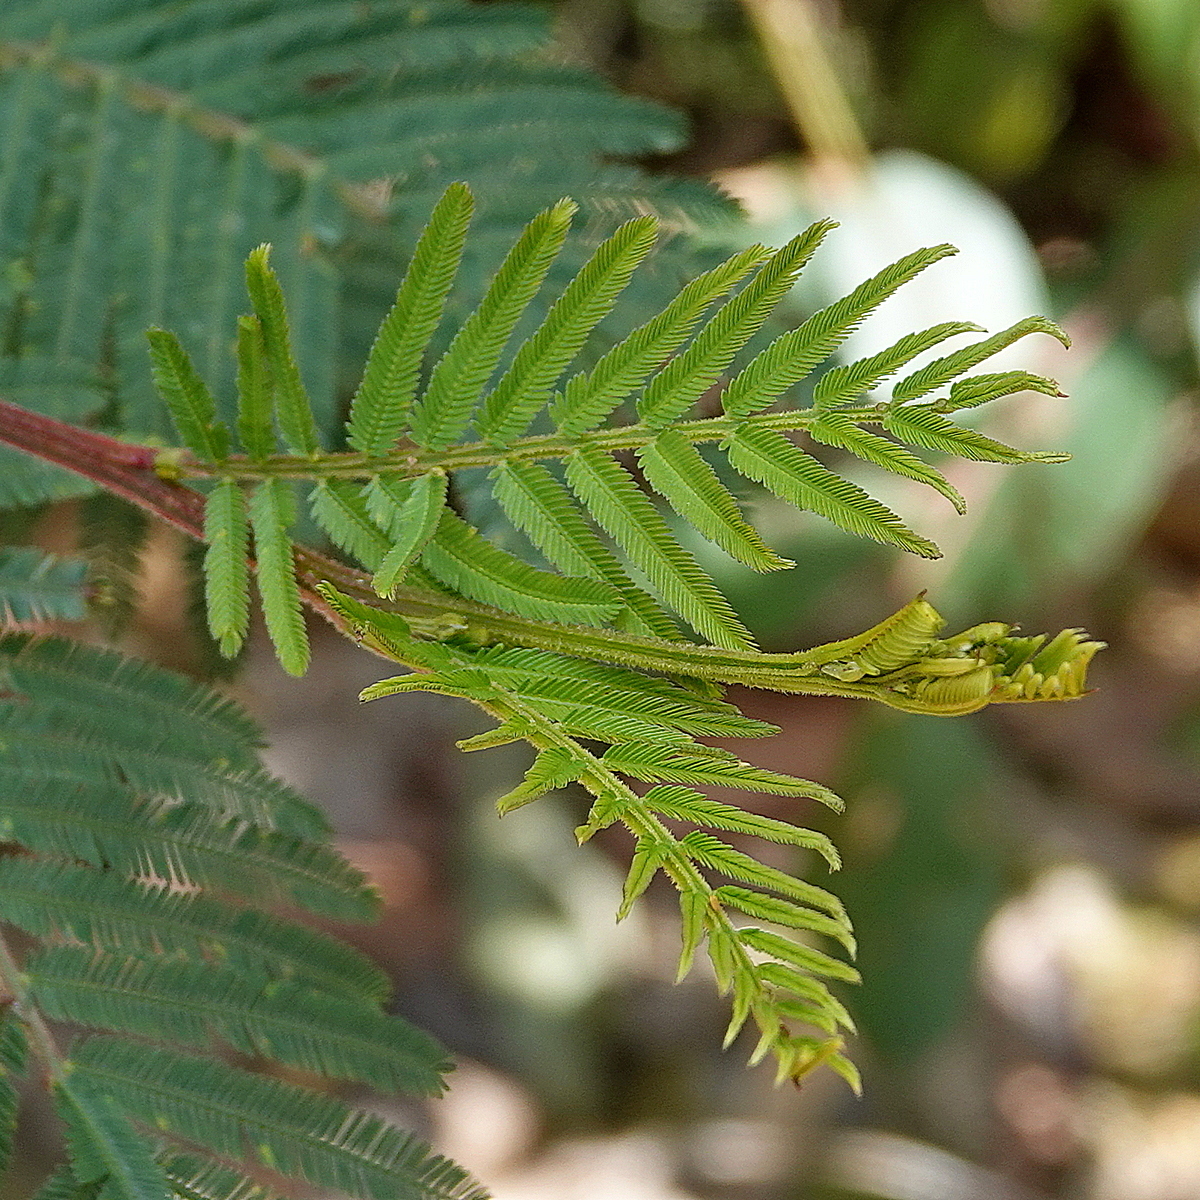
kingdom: Plantae
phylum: Tracheophyta
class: Magnoliopsida
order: Fabales
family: Fabaceae
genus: Acacia
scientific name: Acacia irrorata
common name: Green wattle
